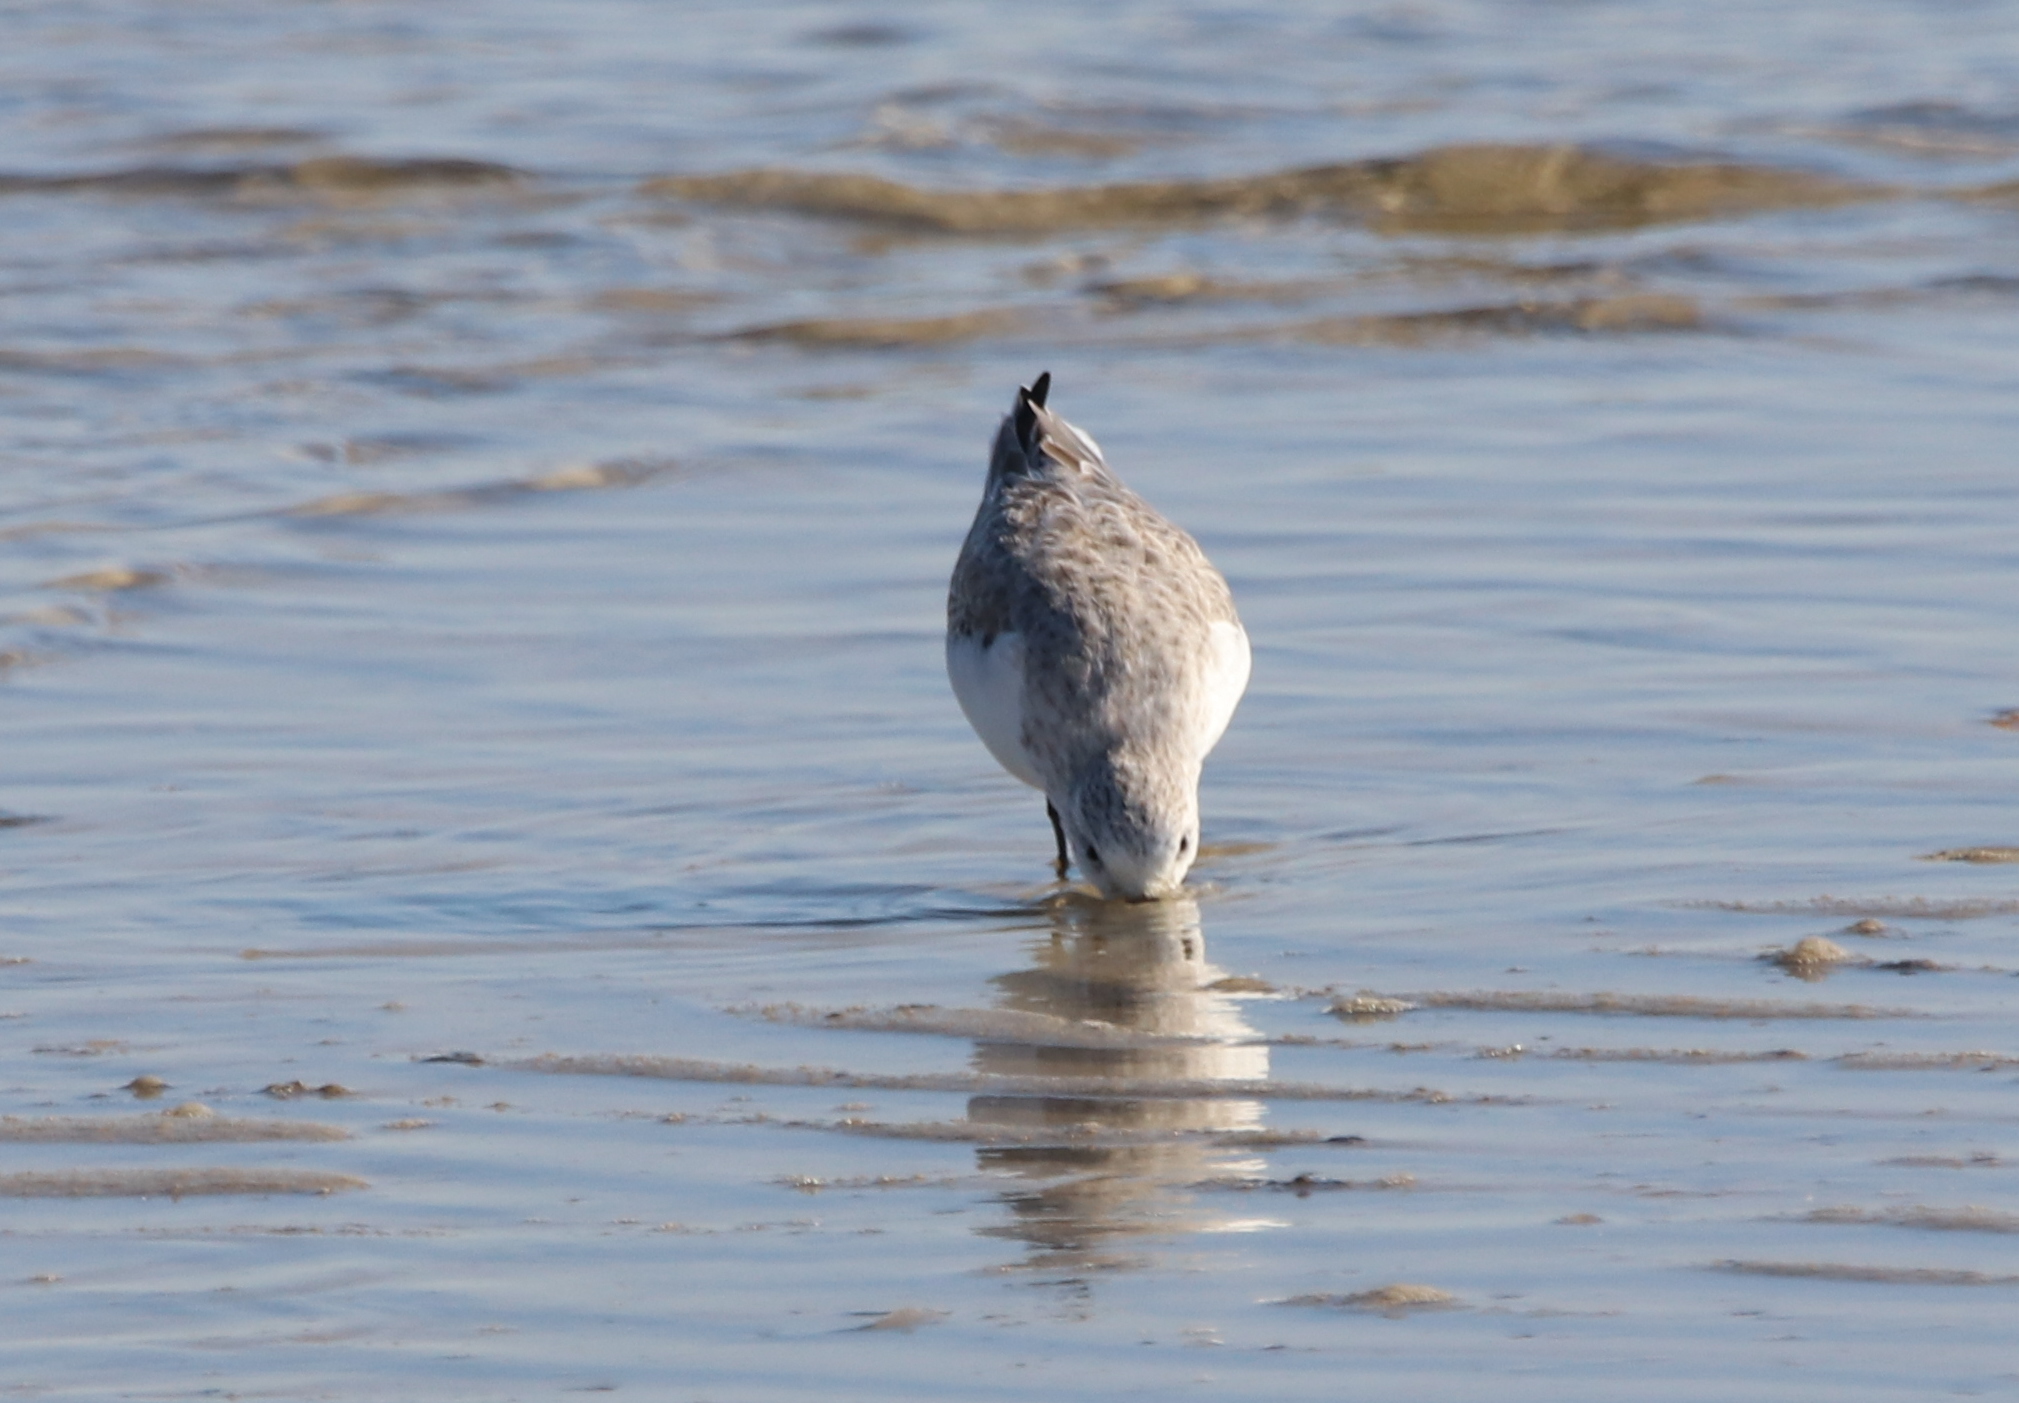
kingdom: Animalia
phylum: Chordata
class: Aves
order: Charadriiformes
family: Scolopacidae
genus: Calidris
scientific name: Calidris alba
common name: Sanderling
